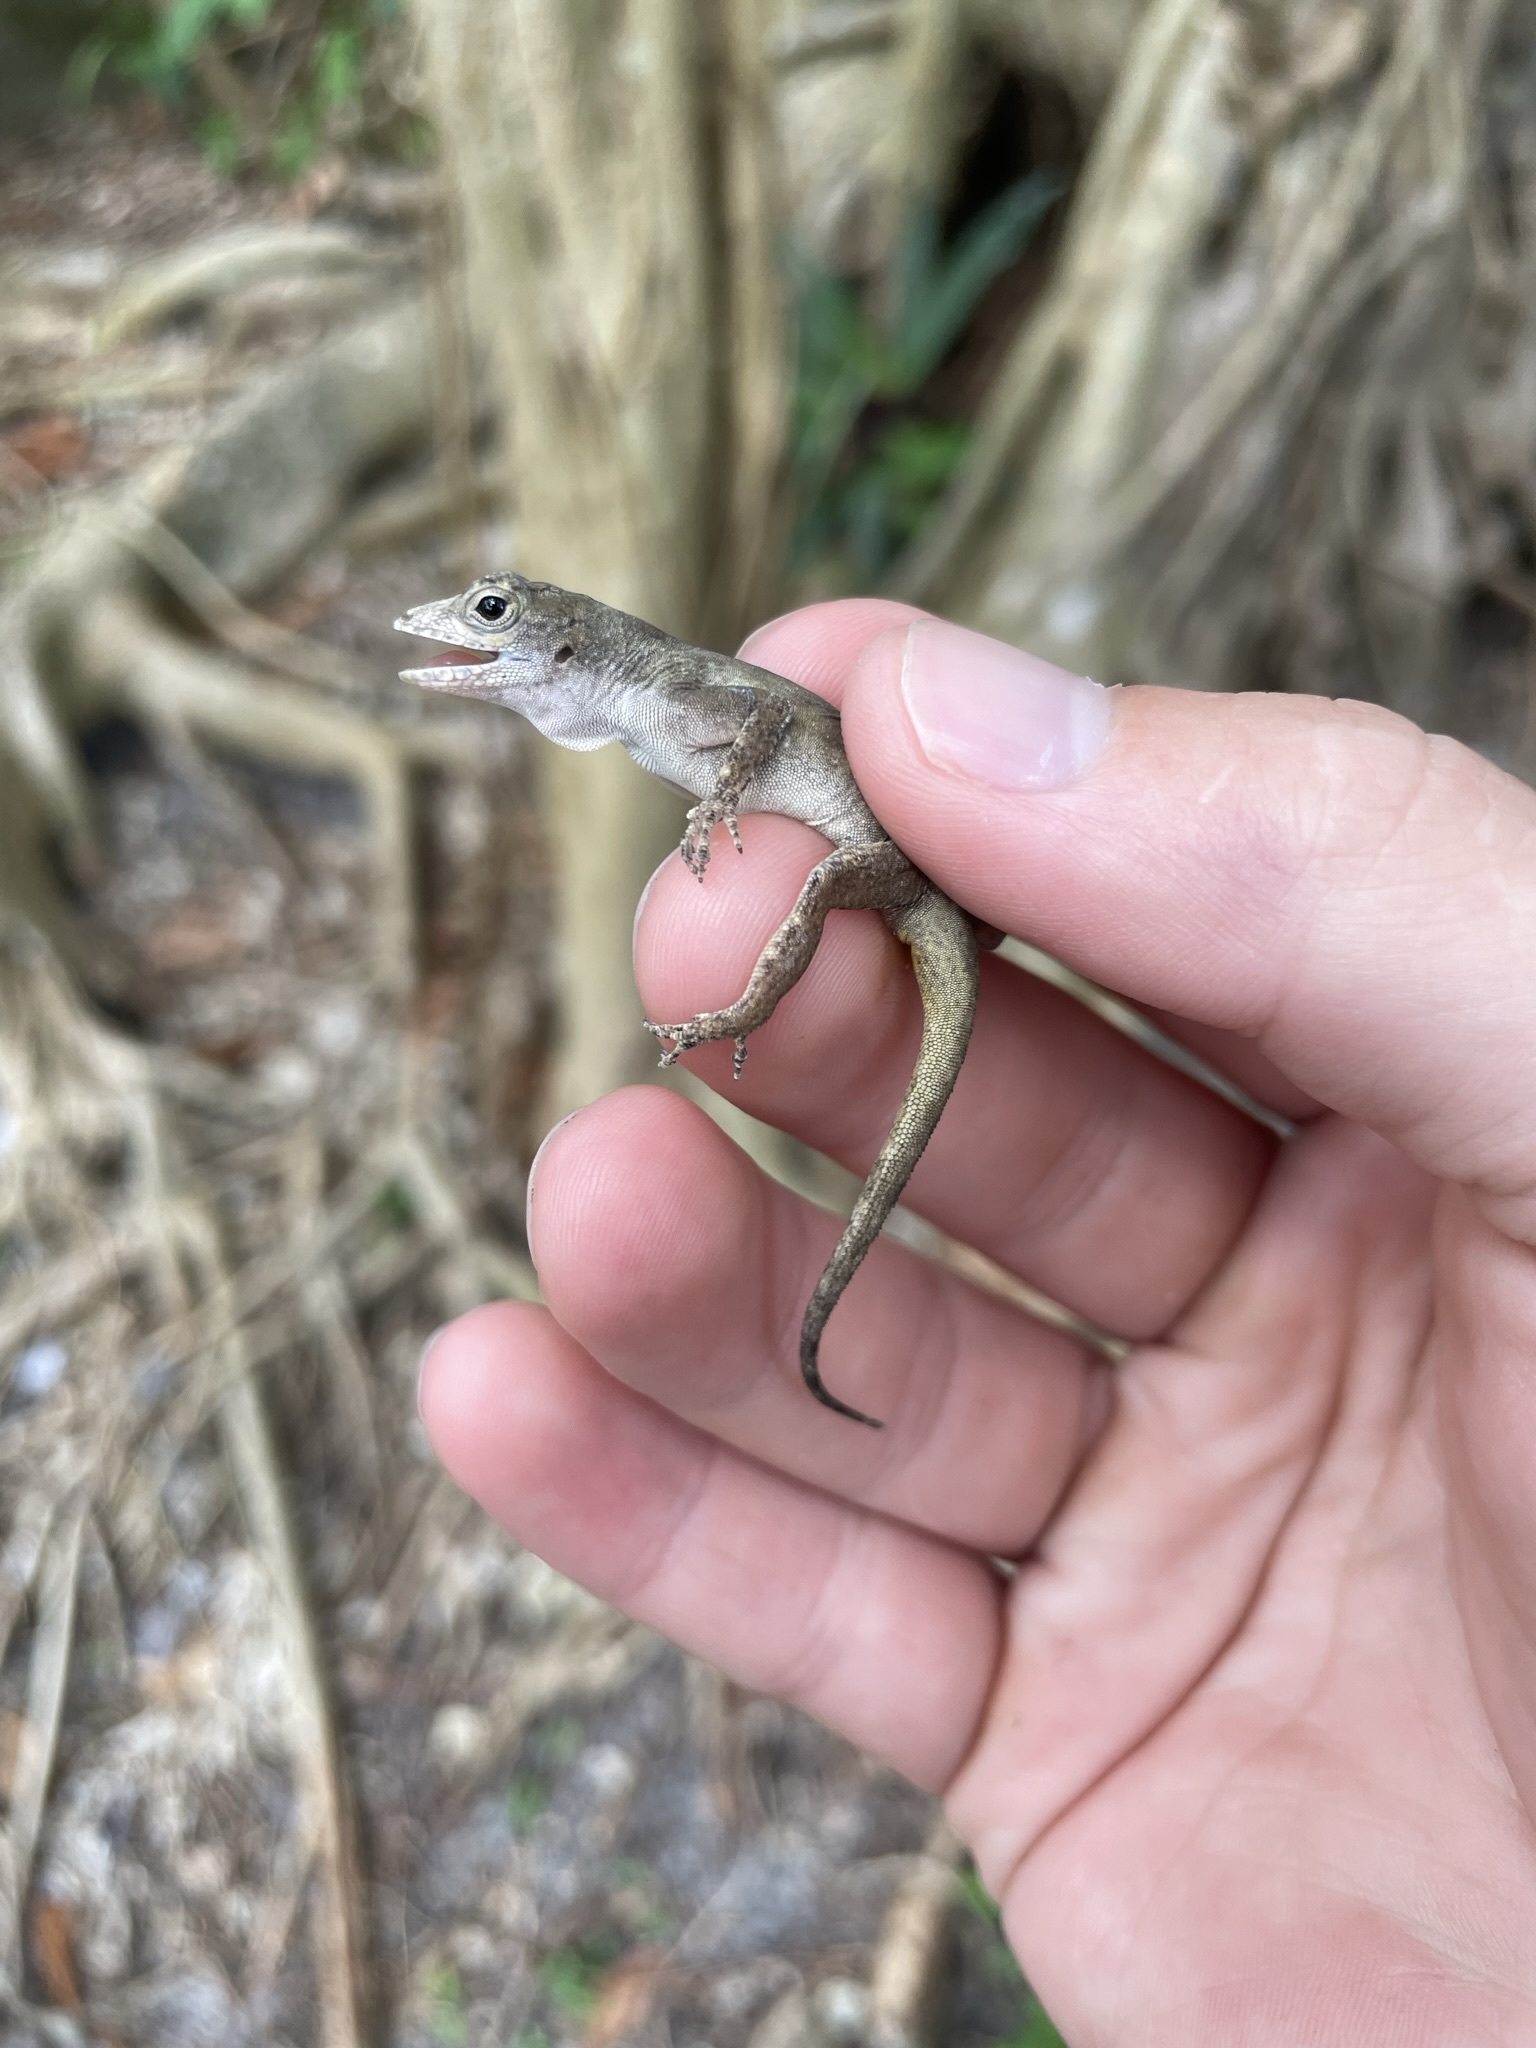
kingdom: Animalia
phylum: Chordata
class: Squamata
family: Dactyloidae
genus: Anolis
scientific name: Anolis distichus
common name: Bark anole
